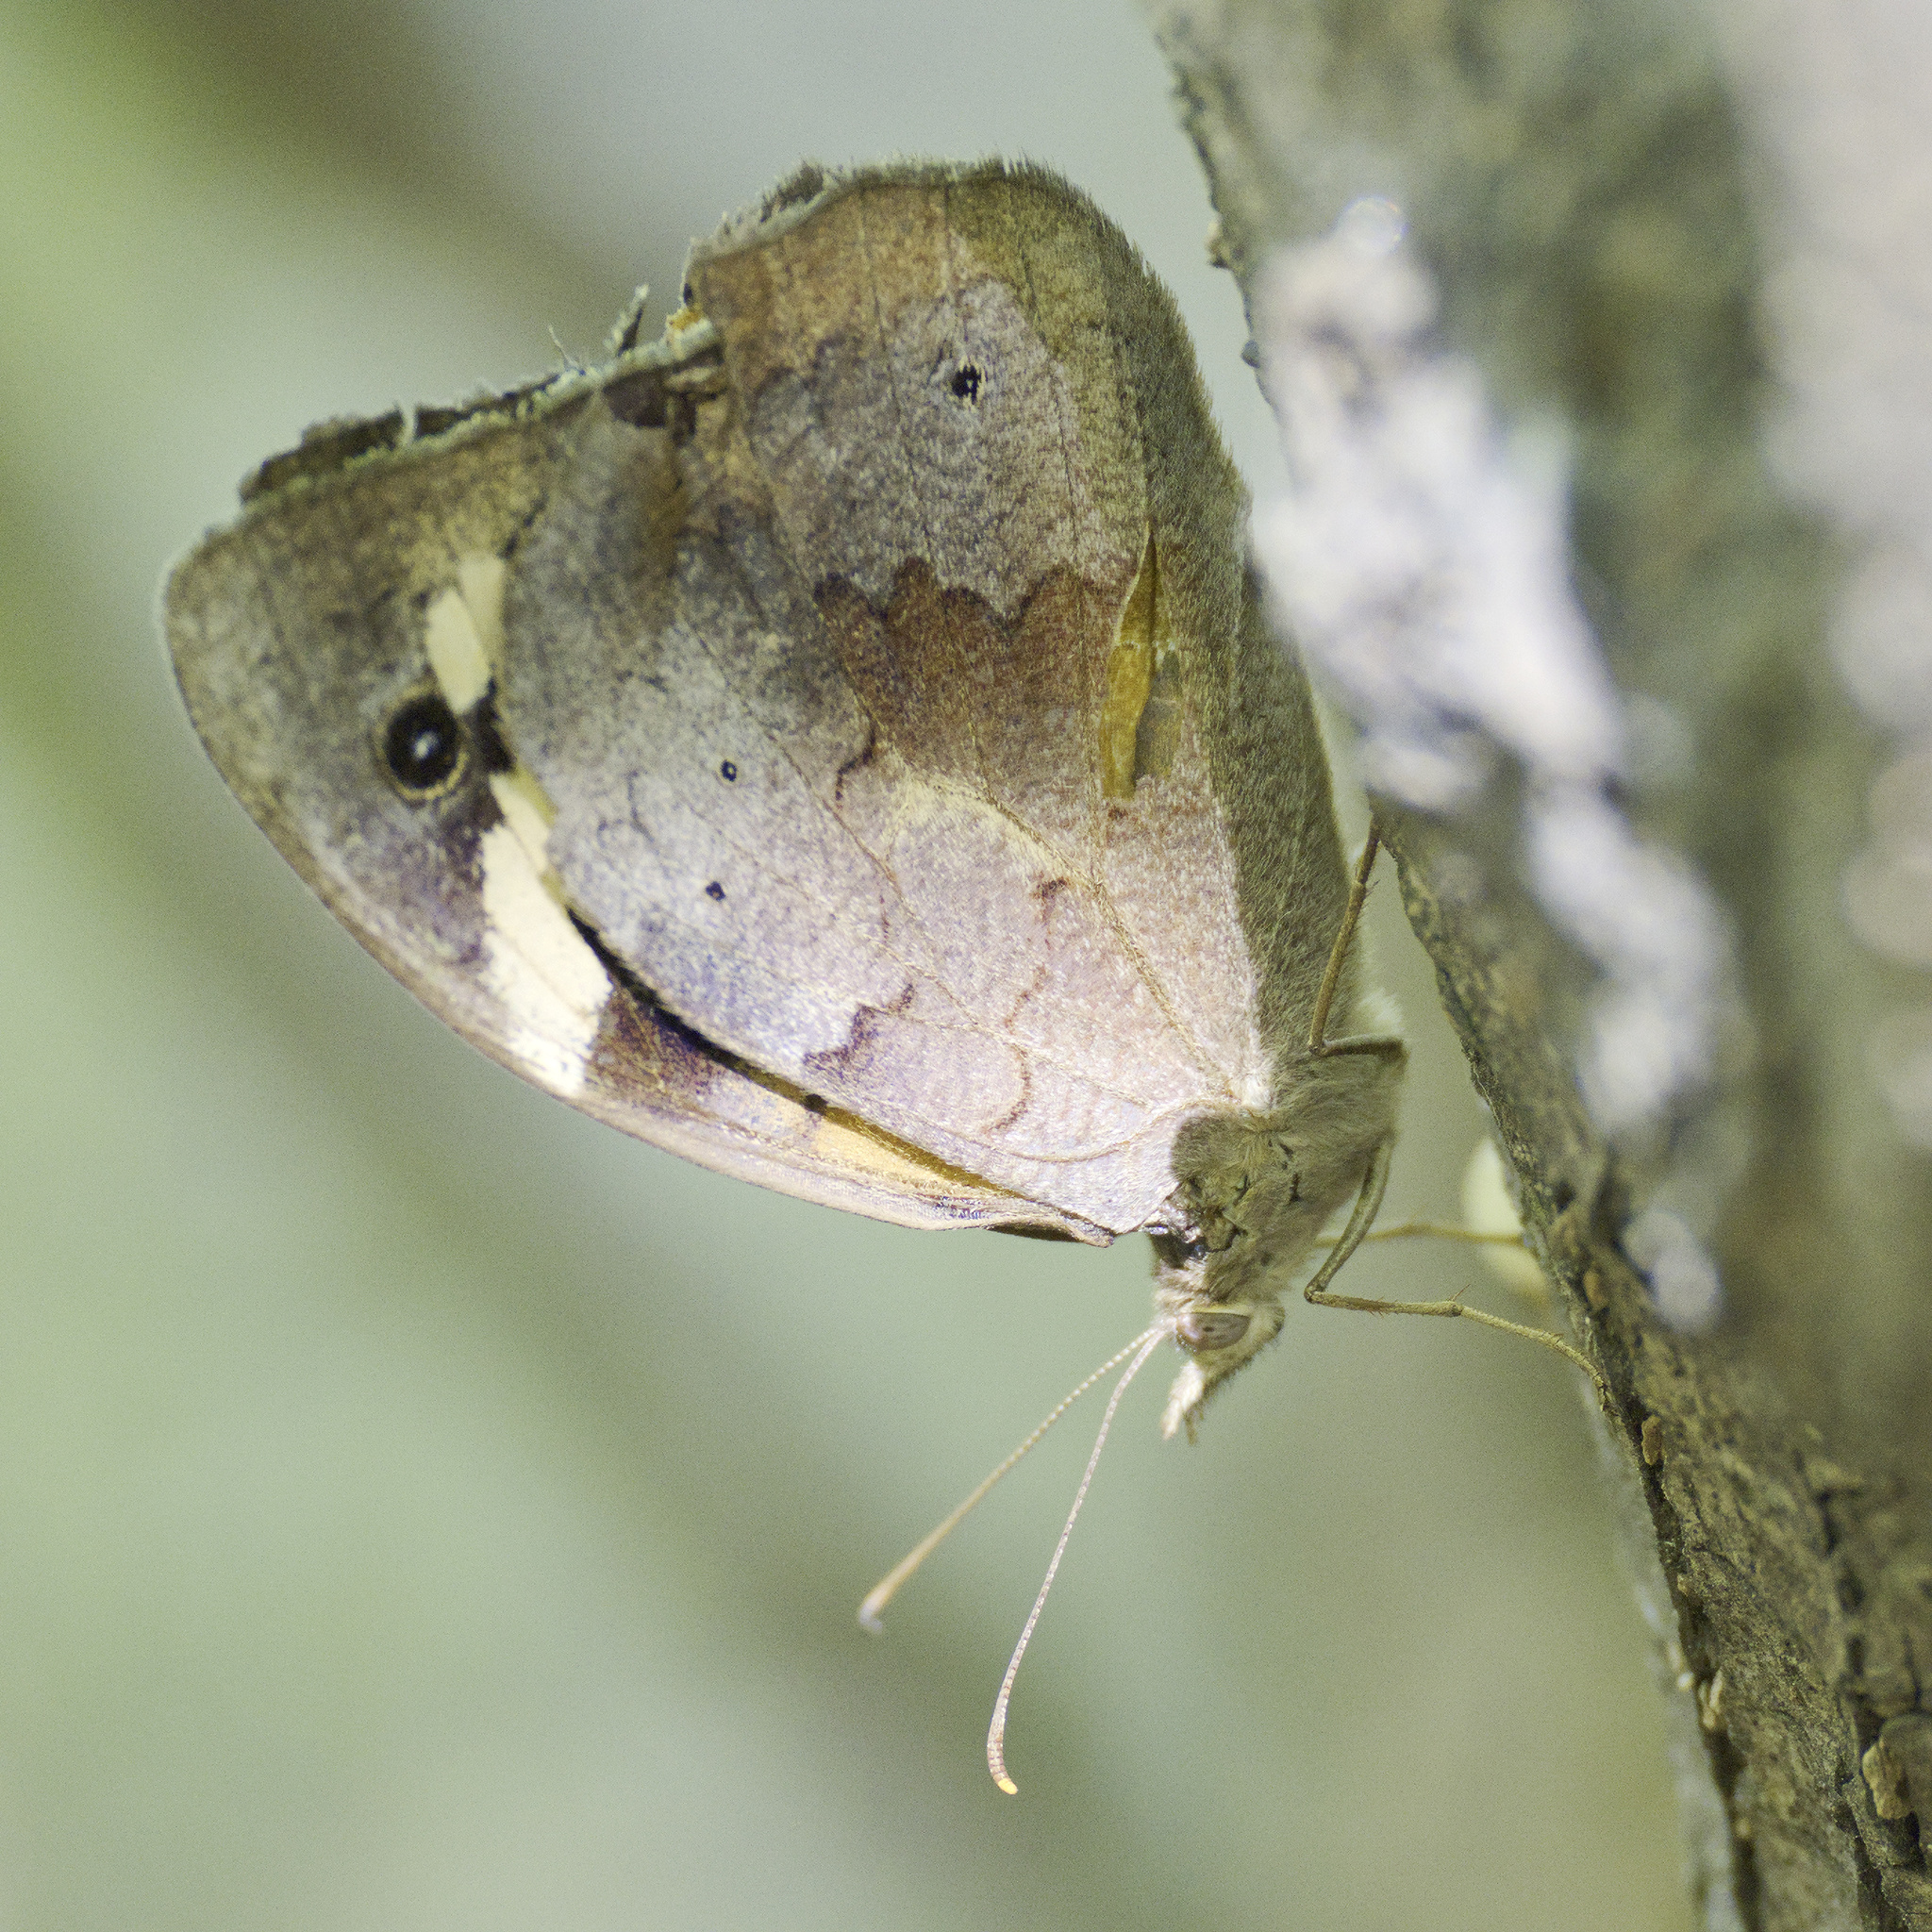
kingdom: Animalia
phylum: Arthropoda
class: Insecta
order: Lepidoptera
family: Nymphalidae
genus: Heteronympha
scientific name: Heteronympha merope
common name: Common brown
